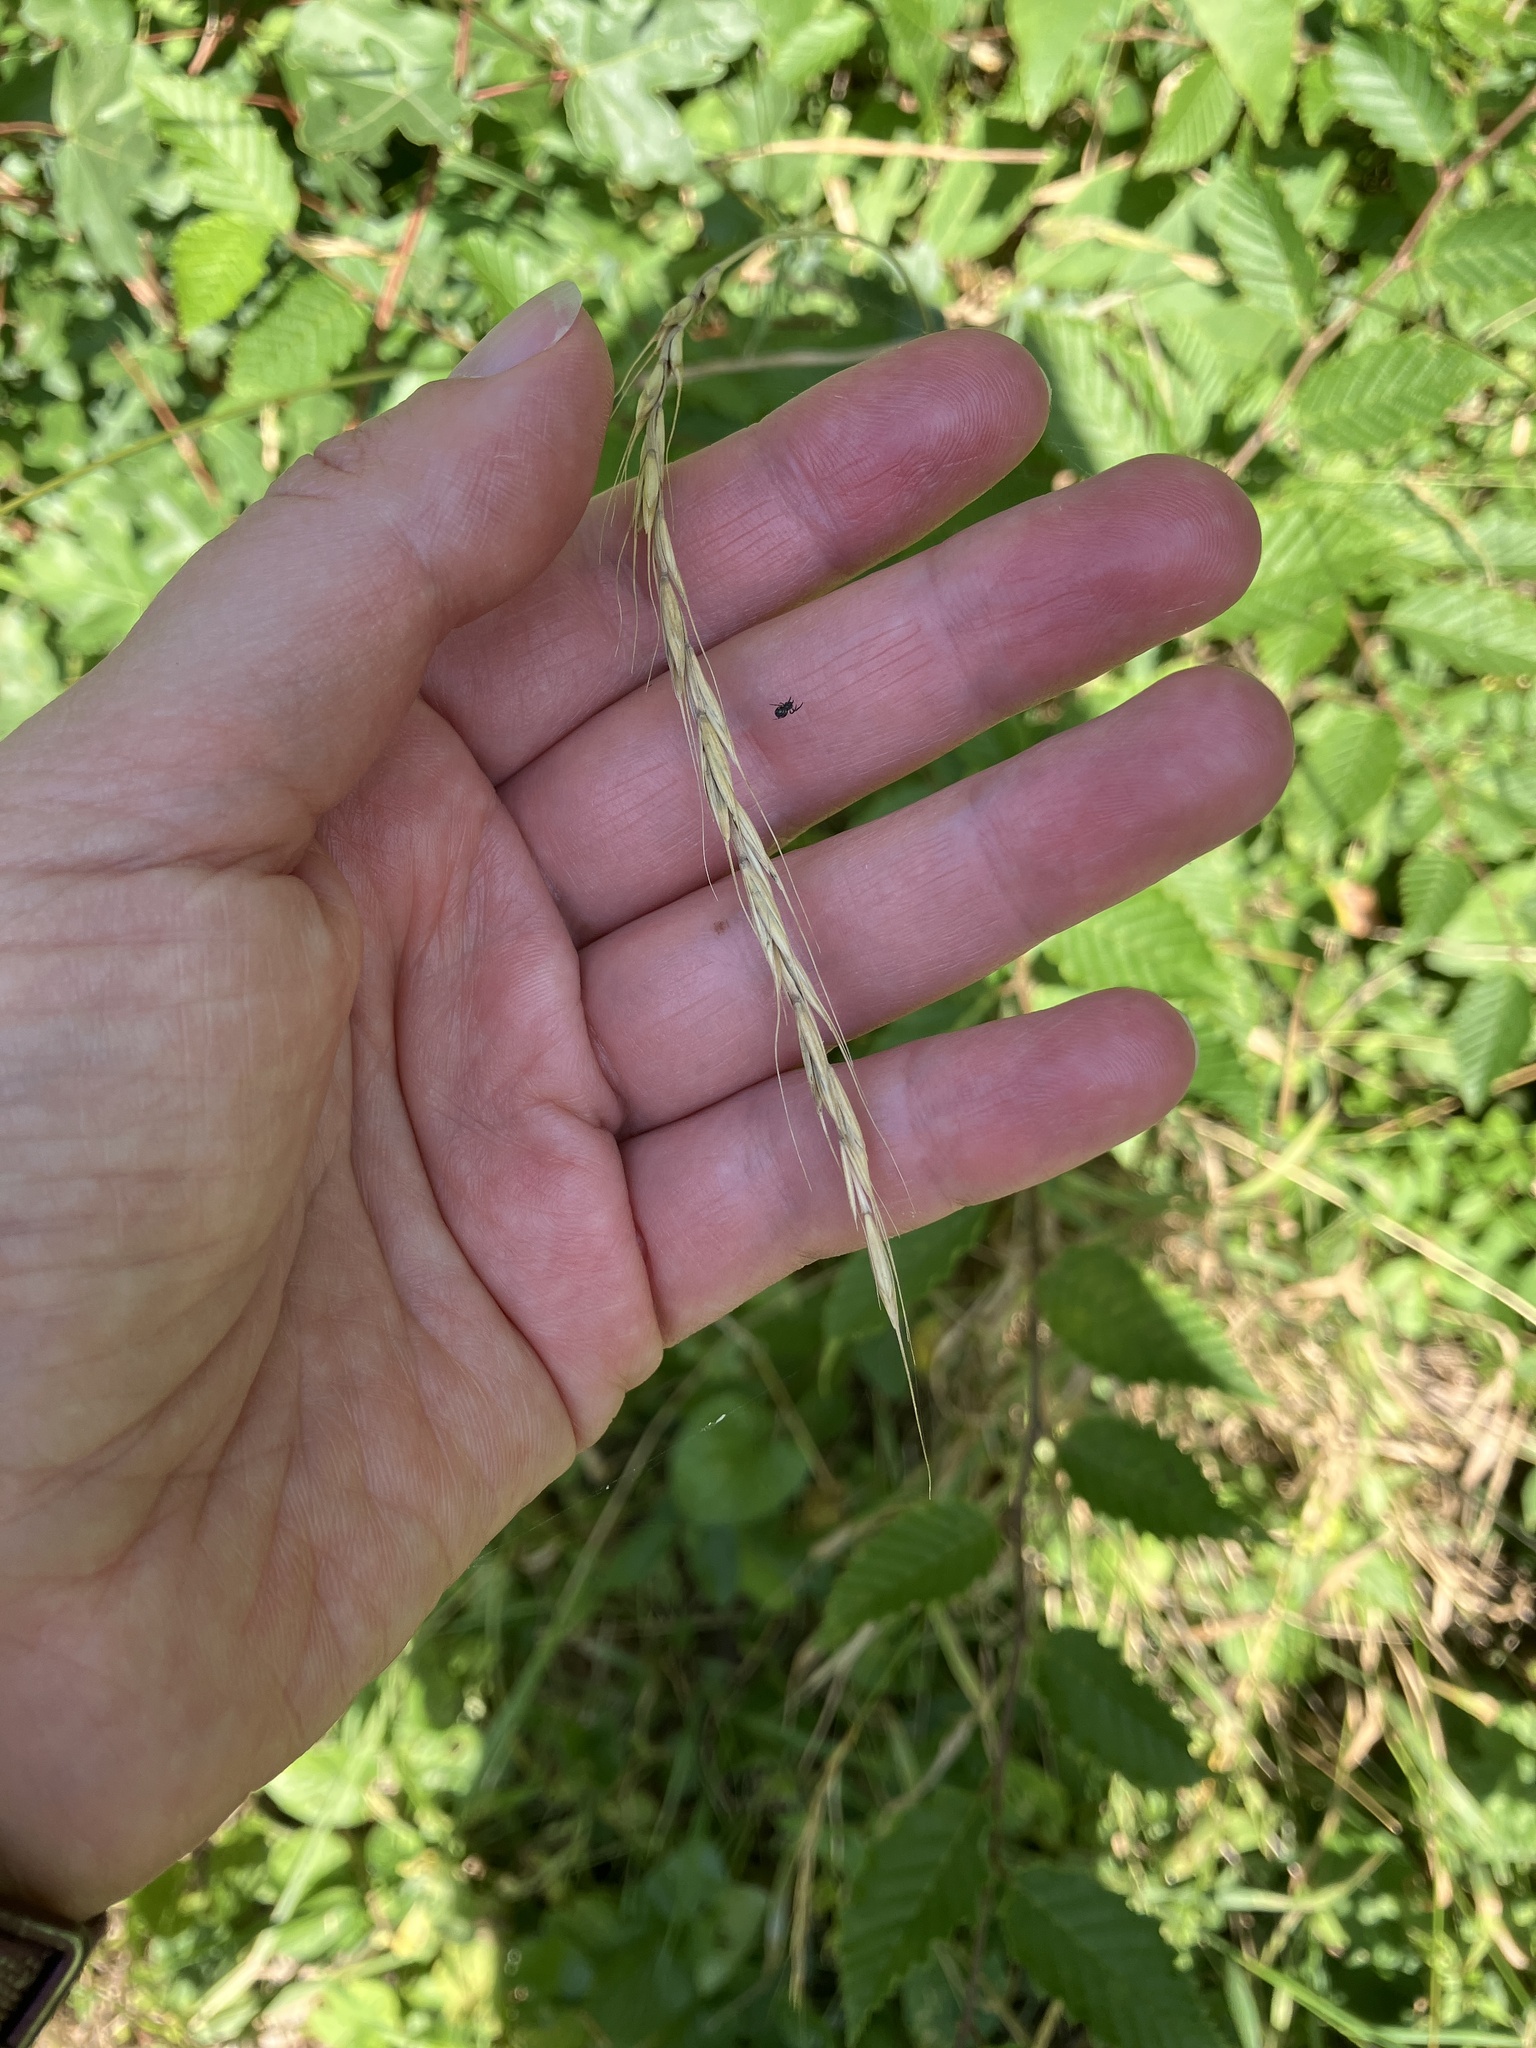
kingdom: Plantae
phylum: Tracheophyta
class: Liliopsida
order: Poales
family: Poaceae
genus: Elymus
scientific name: Elymus caninus
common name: Bearded couch
